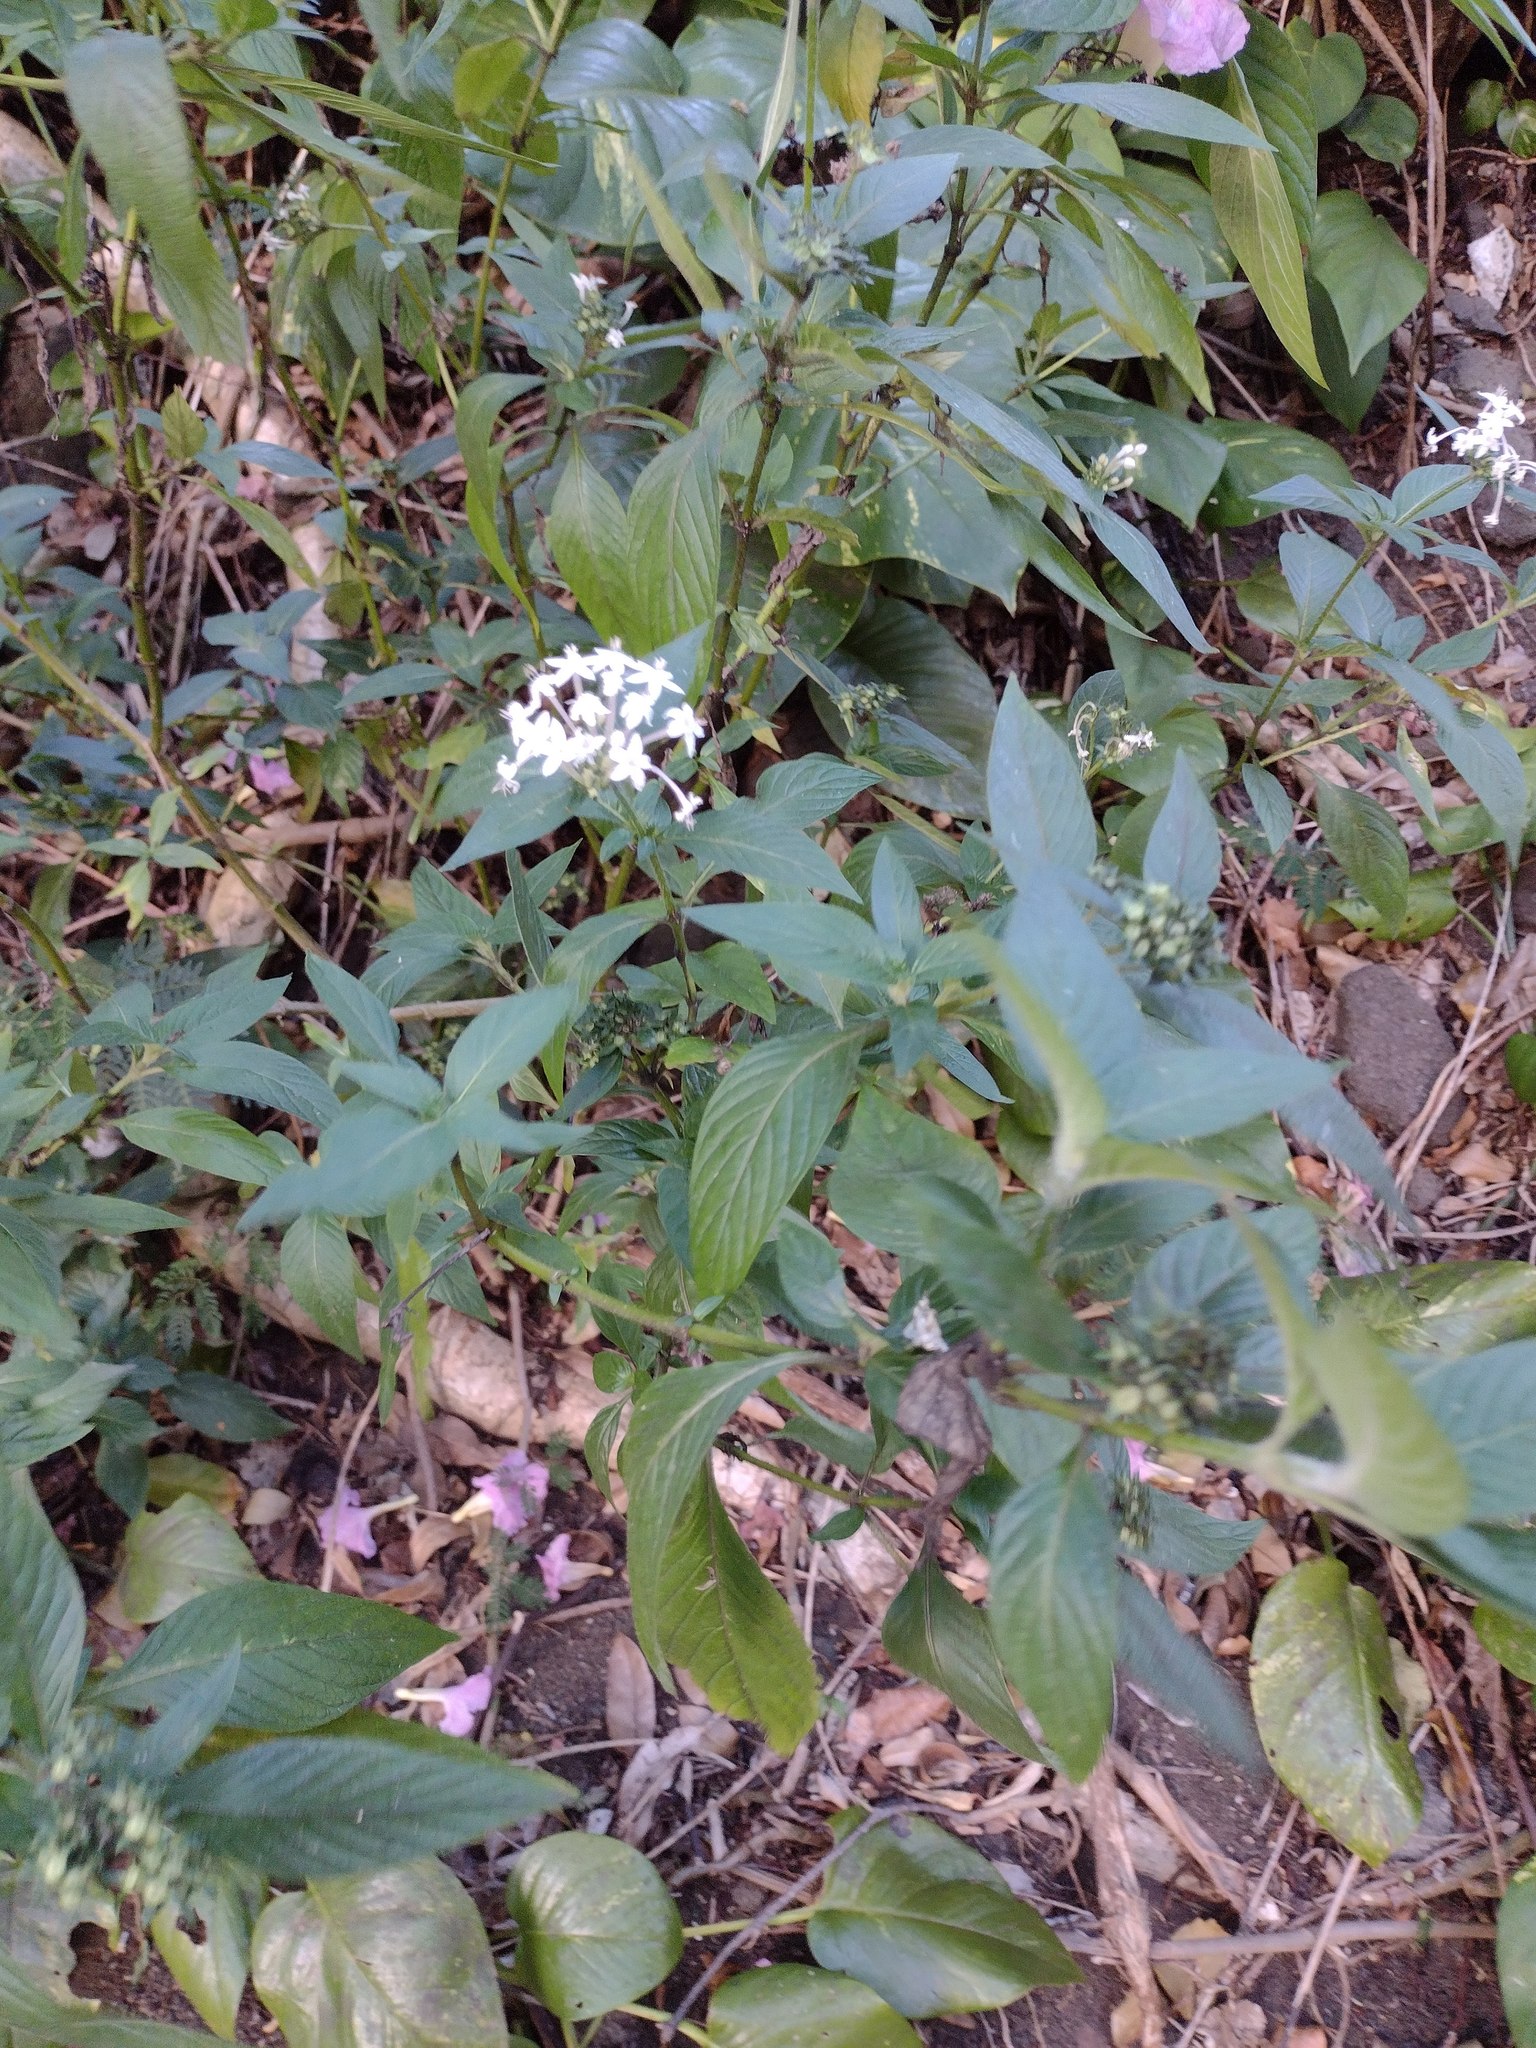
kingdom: Plantae
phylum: Tracheophyta
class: Magnoliopsida
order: Gentianales
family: Rubiaceae
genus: Pentas
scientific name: Pentas lanceolata
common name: Egyptian starcluster
